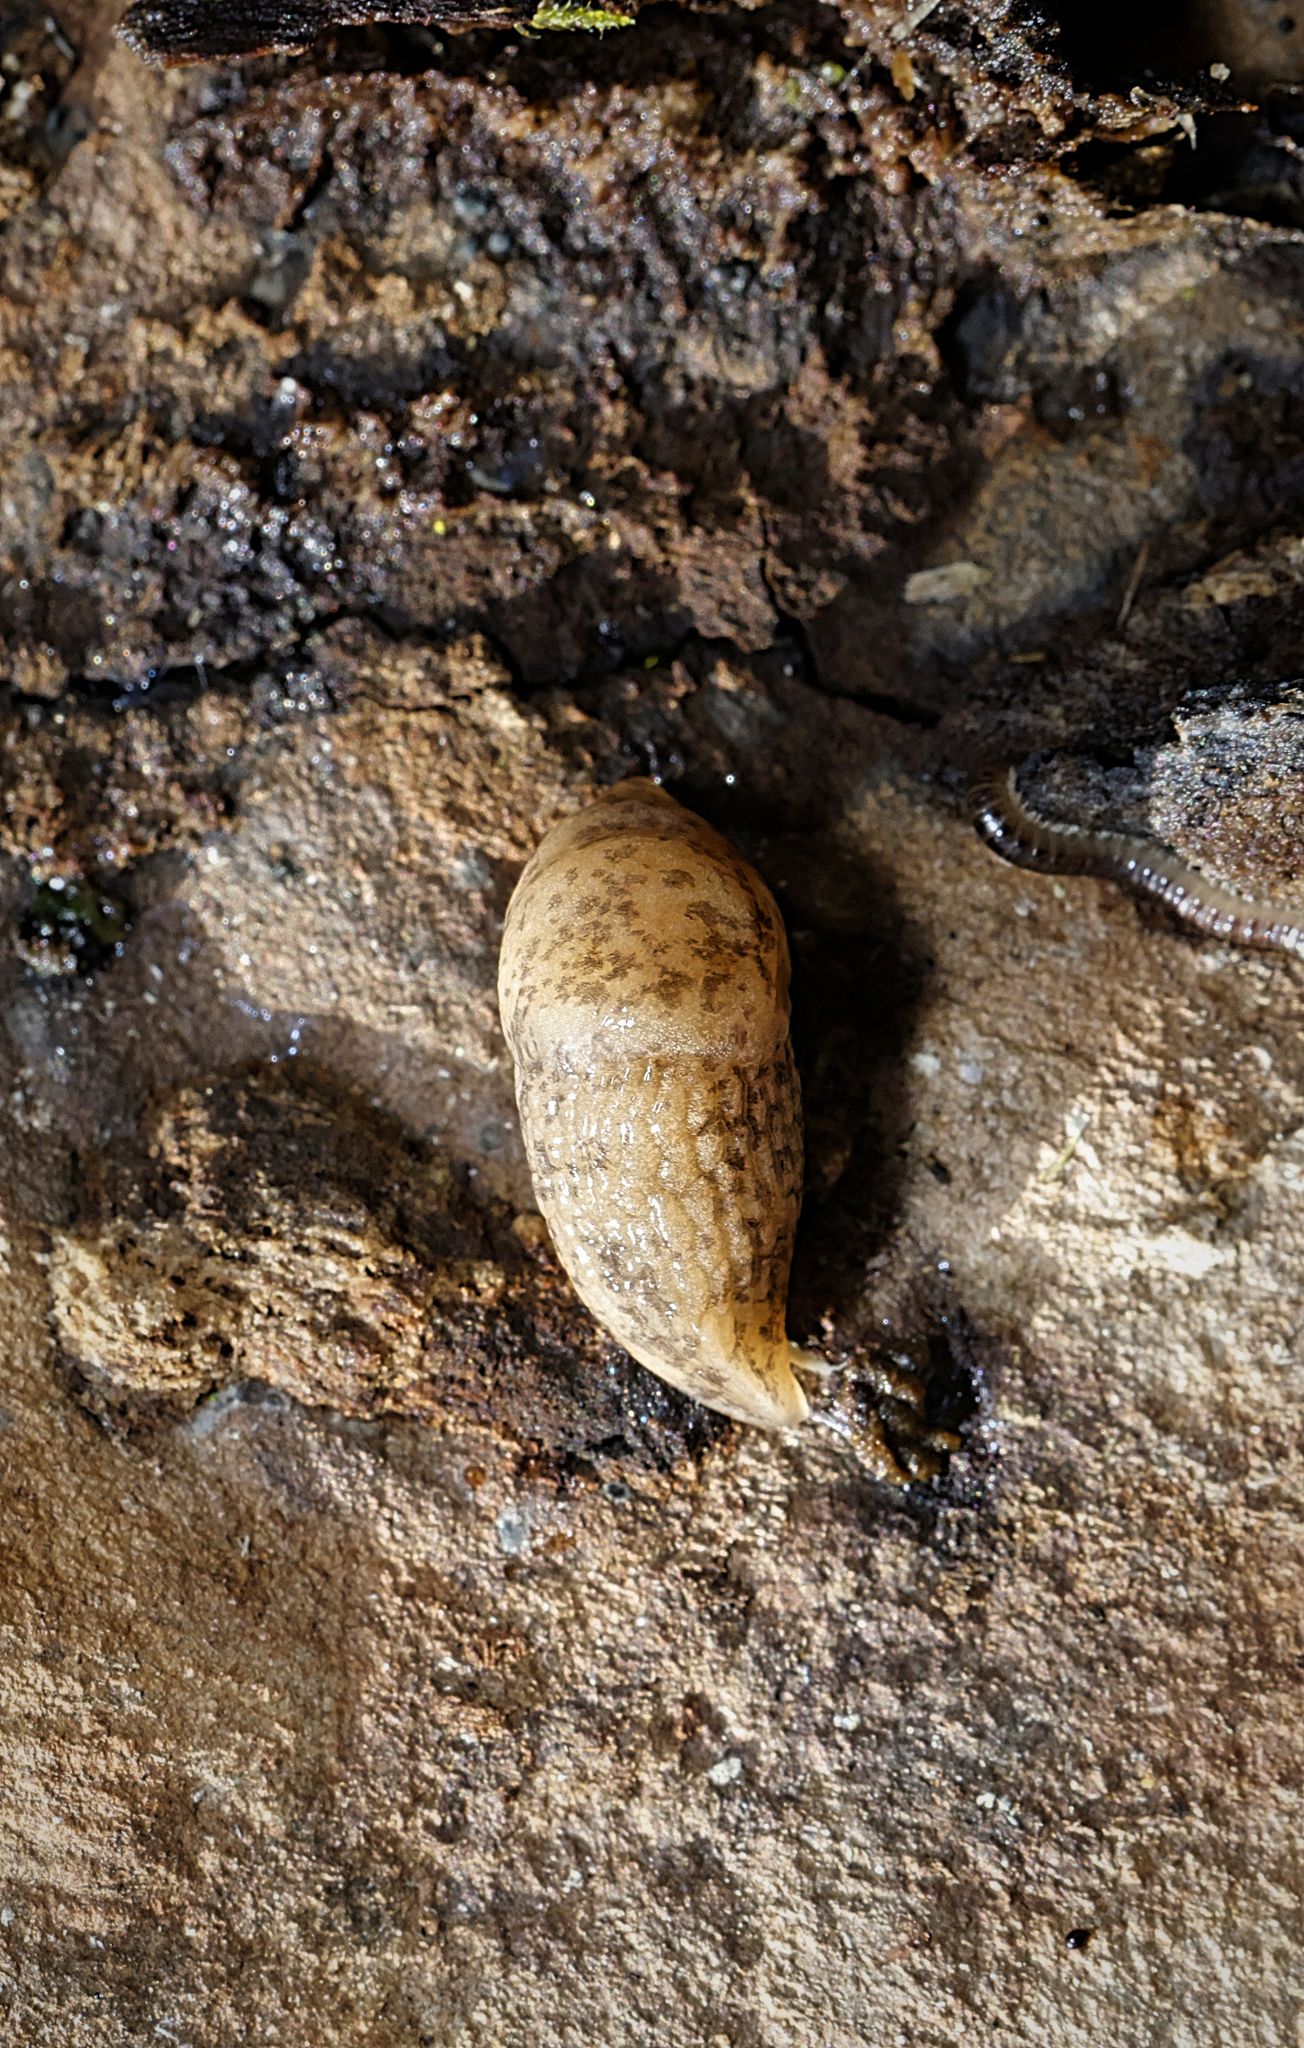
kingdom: Animalia
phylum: Mollusca
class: Gastropoda
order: Stylommatophora
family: Agriolimacidae
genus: Deroceras
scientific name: Deroceras reticulatum
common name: Gray field slug
